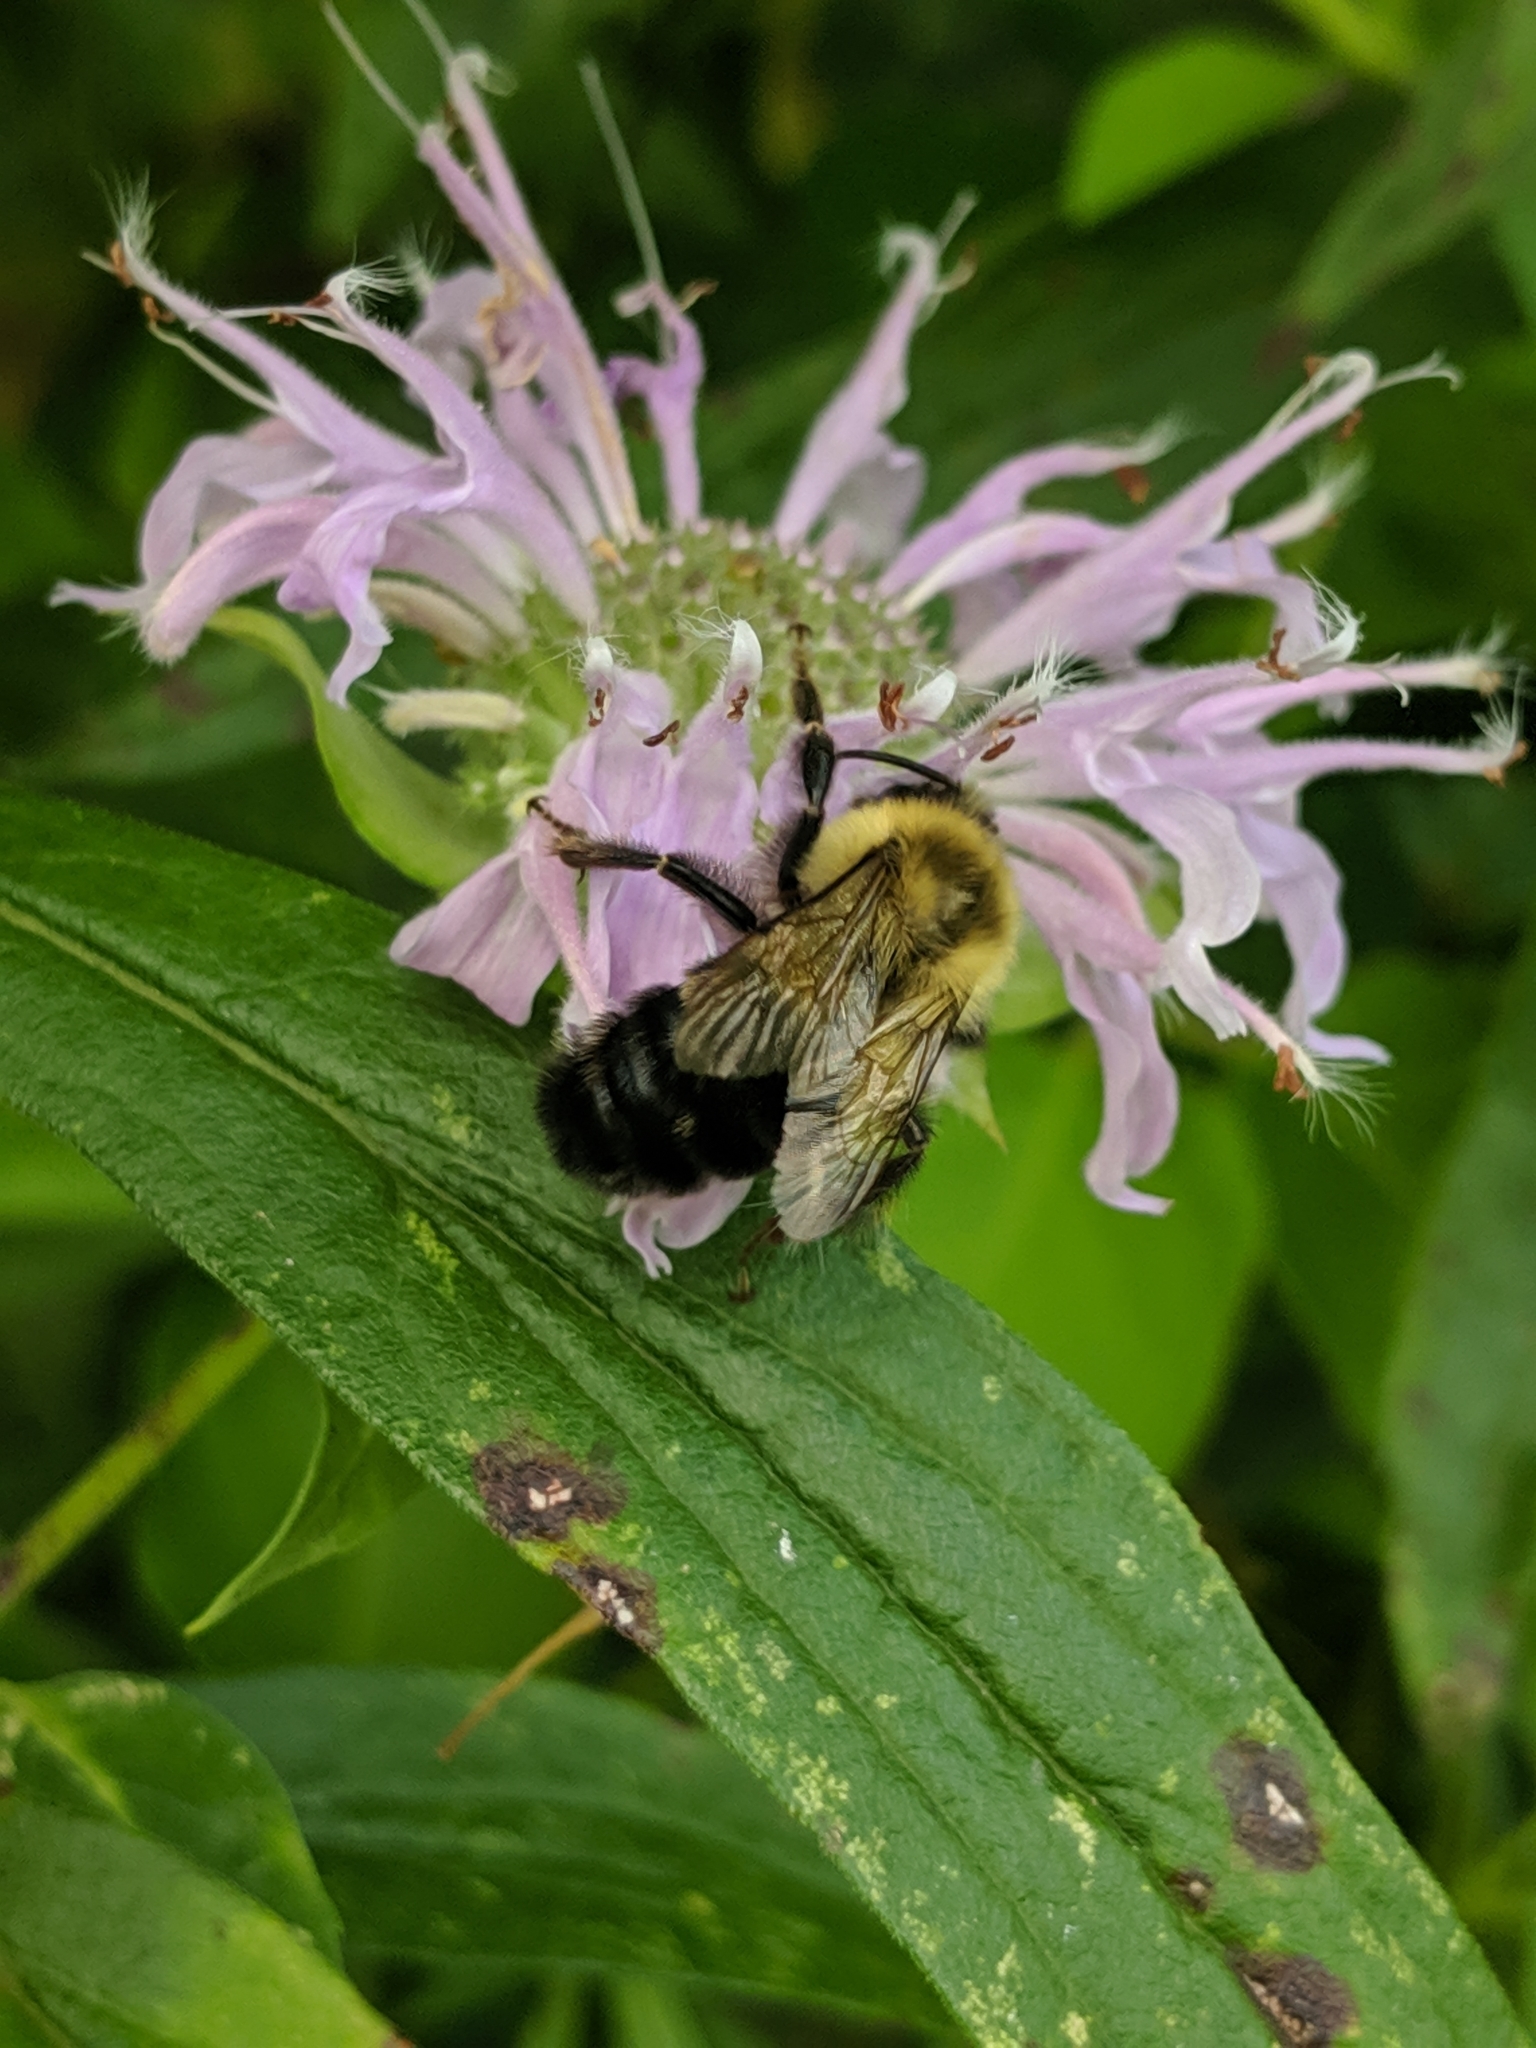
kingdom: Animalia
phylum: Arthropoda
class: Insecta
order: Hymenoptera
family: Apidae
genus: Bombus
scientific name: Bombus impatiens
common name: Common eastern bumble bee
